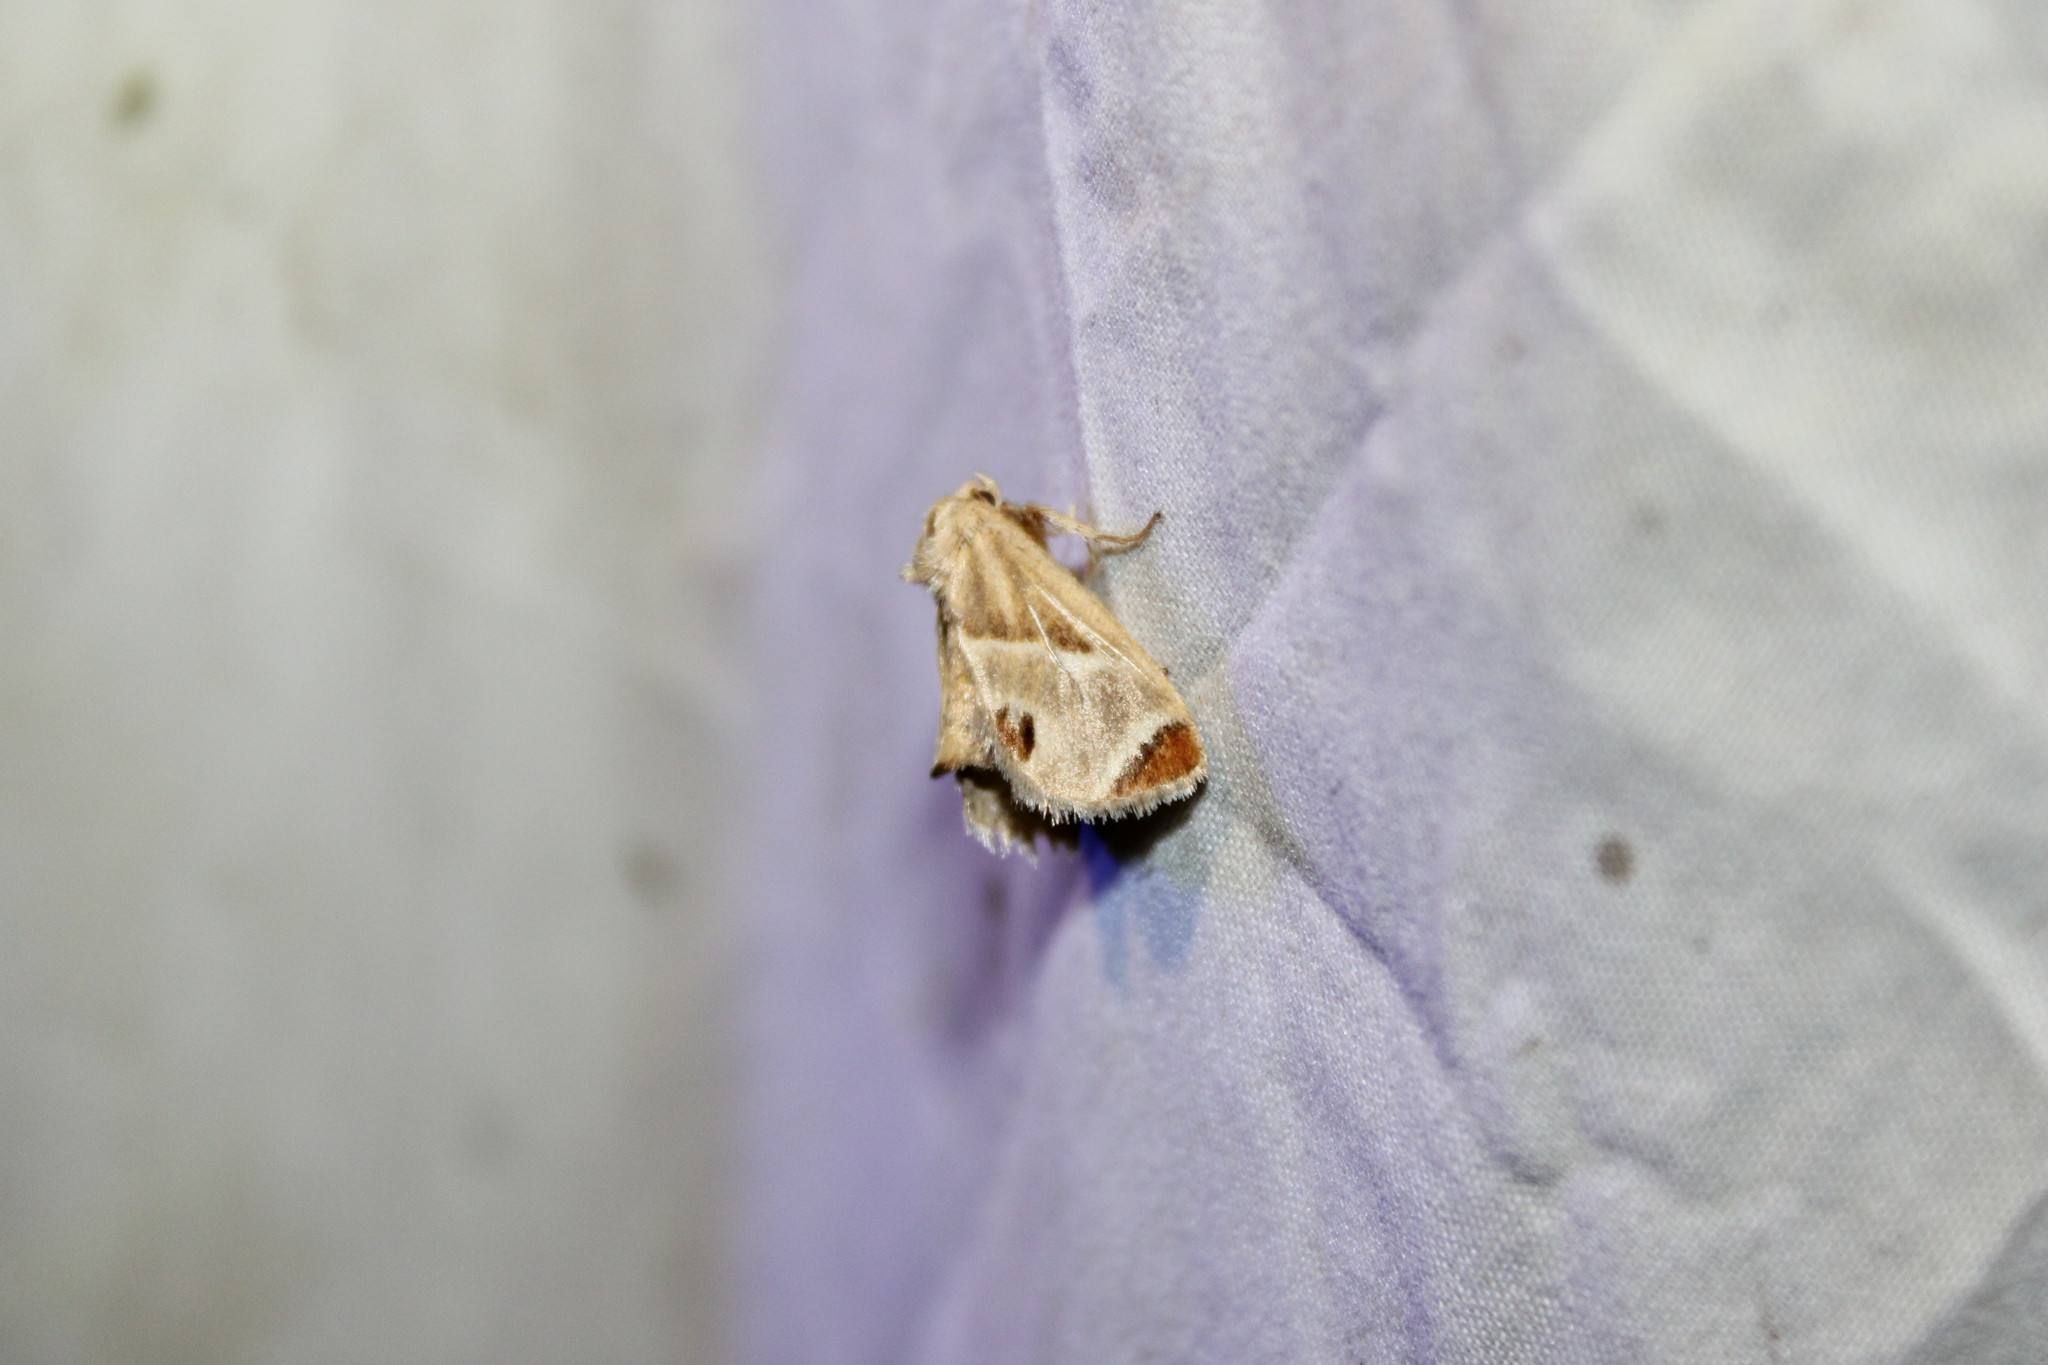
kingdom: Animalia
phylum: Arthropoda
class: Insecta
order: Lepidoptera
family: Limacodidae
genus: Apoda
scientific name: Apoda biguttata
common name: Shagreened slug moth
